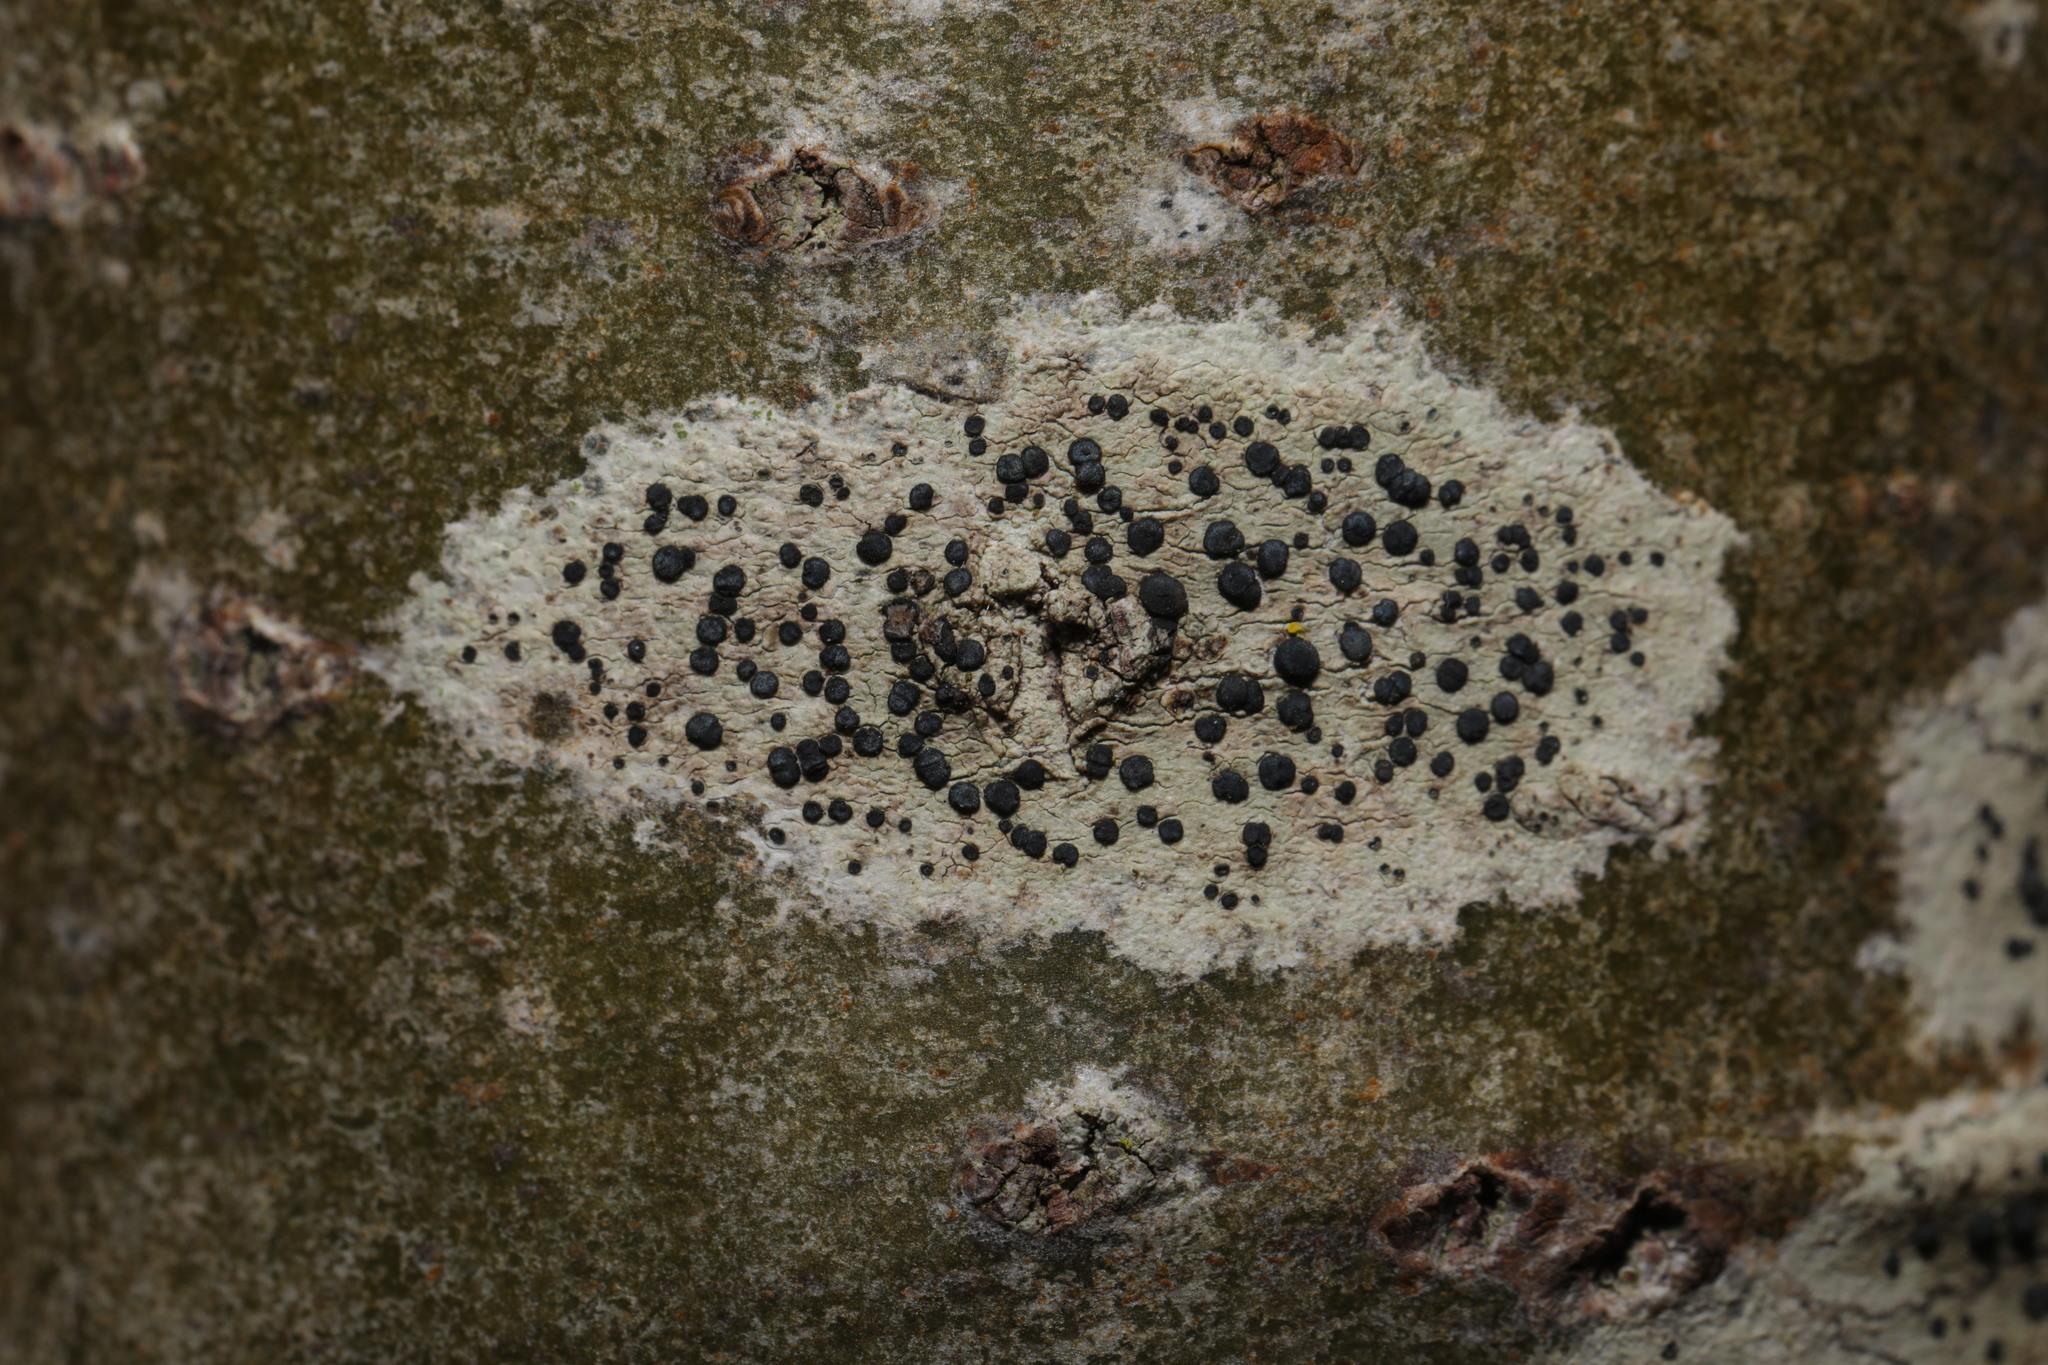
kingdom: Fungi
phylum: Ascomycota
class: Lecanoromycetes
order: Lecanorales
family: Lecanoraceae
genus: Lecidella
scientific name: Lecidella elaeochroma
